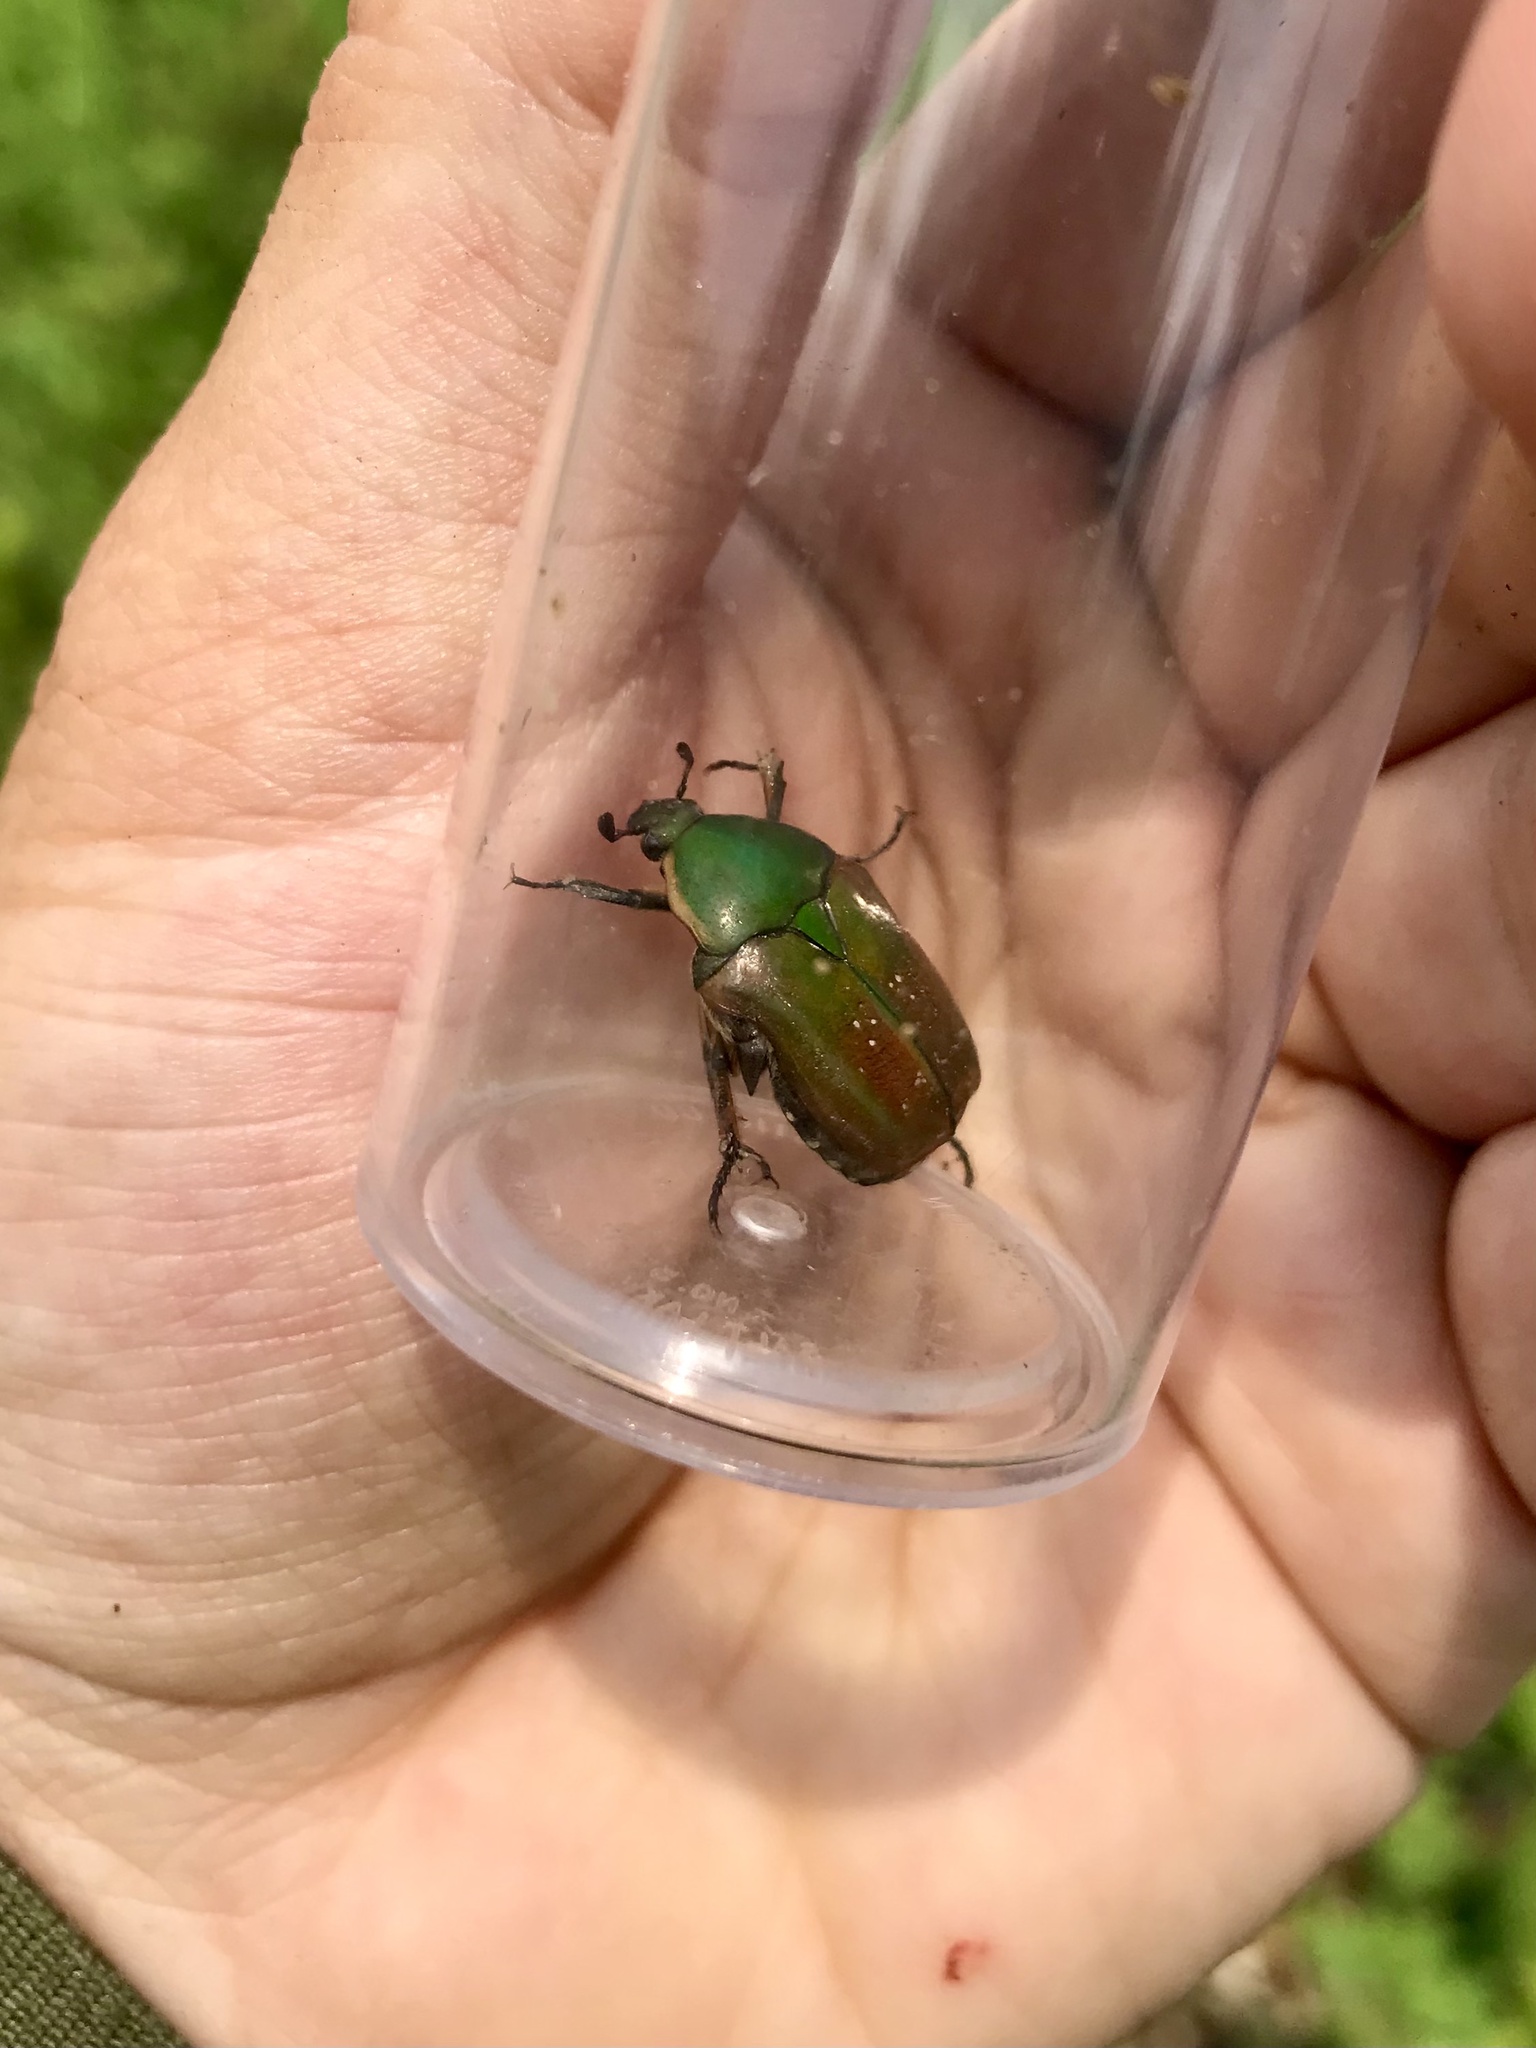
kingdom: Animalia
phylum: Arthropoda
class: Insecta
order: Coleoptera
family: Scarabaeidae
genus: Euphoria
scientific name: Euphoria fulgida
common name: Emerald euphoria
